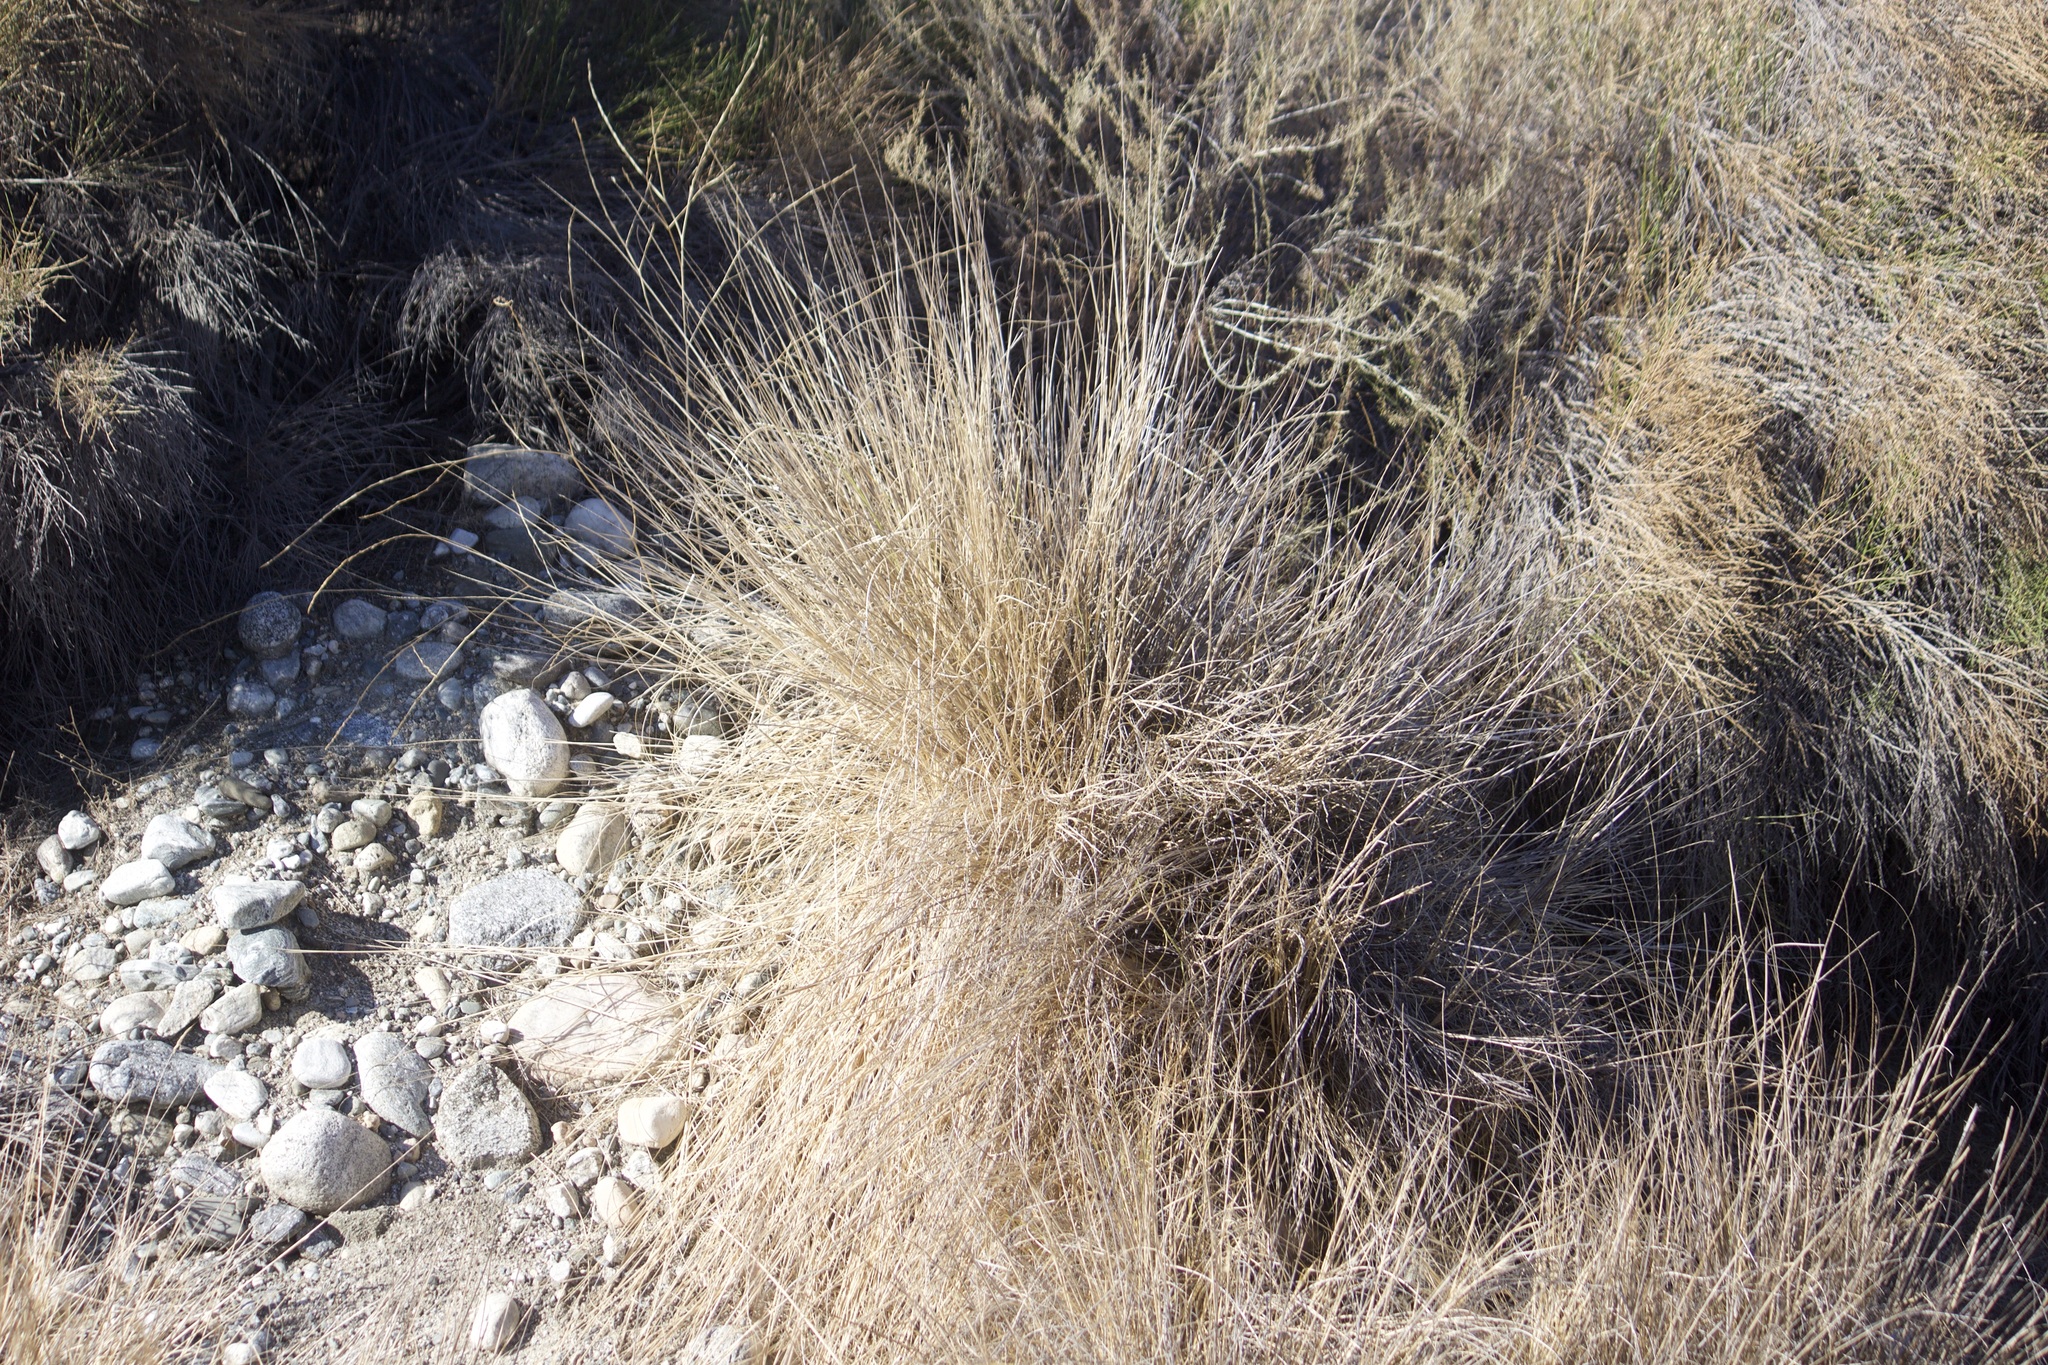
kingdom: Plantae
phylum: Tracheophyta
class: Liliopsida
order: Poales
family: Poaceae
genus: Cenchrus
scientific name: Cenchrus setaceus
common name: Crimson fountaingrass
